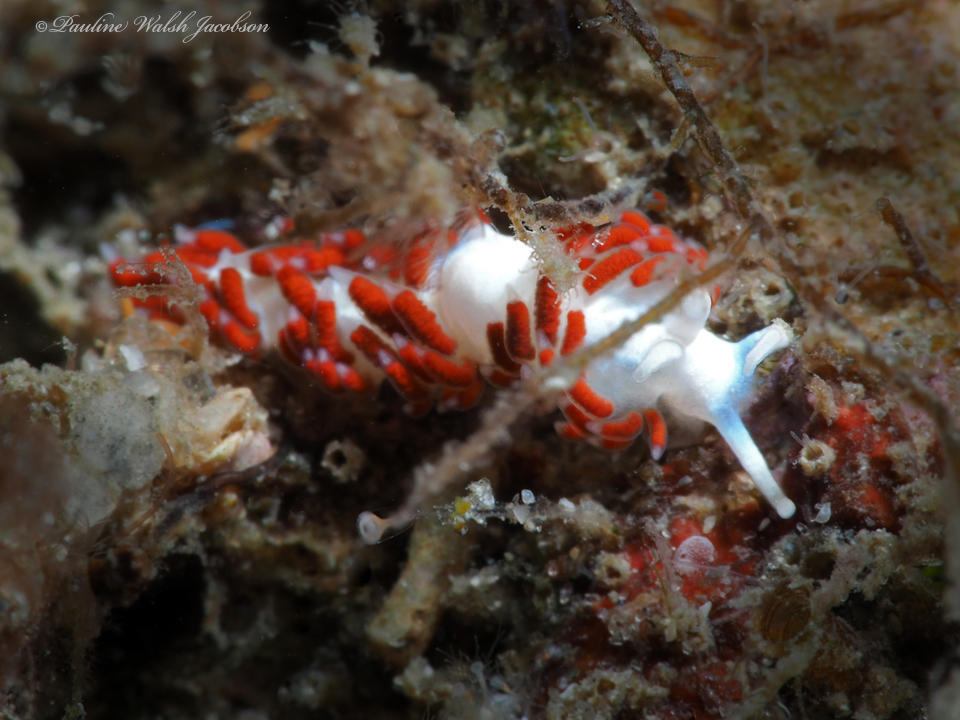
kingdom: Animalia
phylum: Mollusca
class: Gastropoda
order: Nudibranchia
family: Flabellinidae
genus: Flabellina
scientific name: Flabellina dushia
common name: Dushia flabellina
